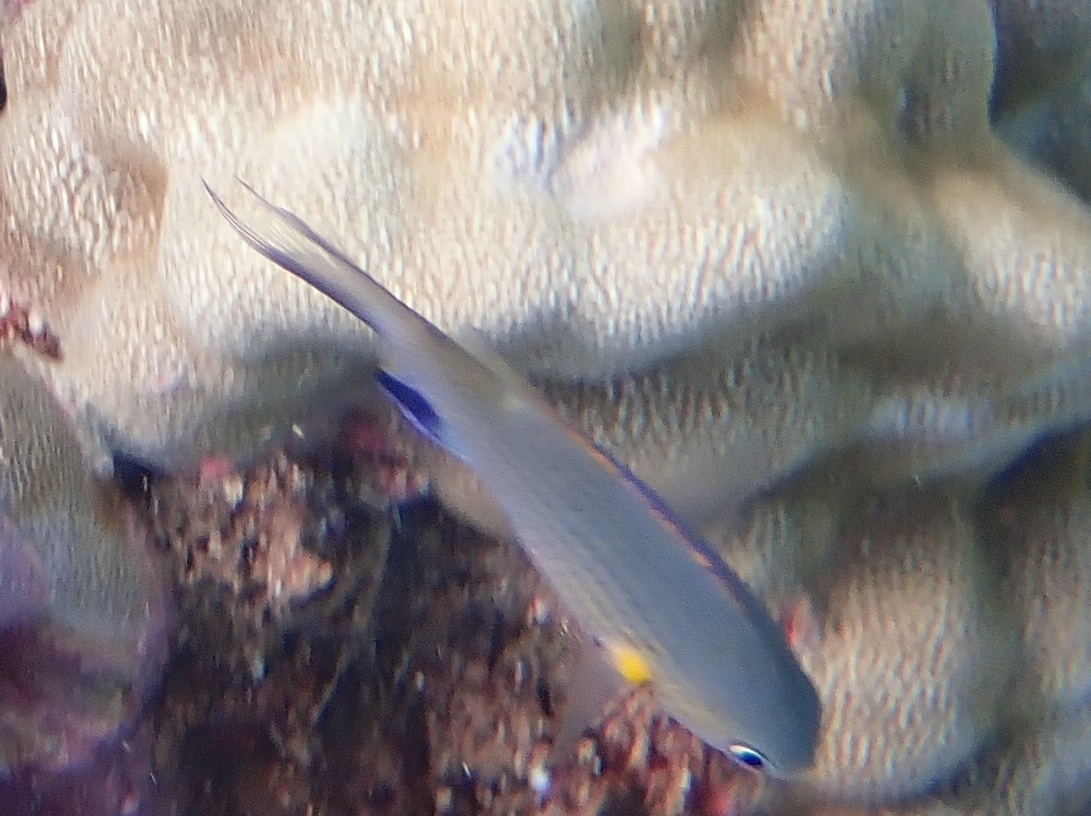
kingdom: Animalia
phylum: Chordata
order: Perciformes
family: Pomacentridae
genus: Chromis
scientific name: Chromis vanderbilti
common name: Vanderbilt's chromis
